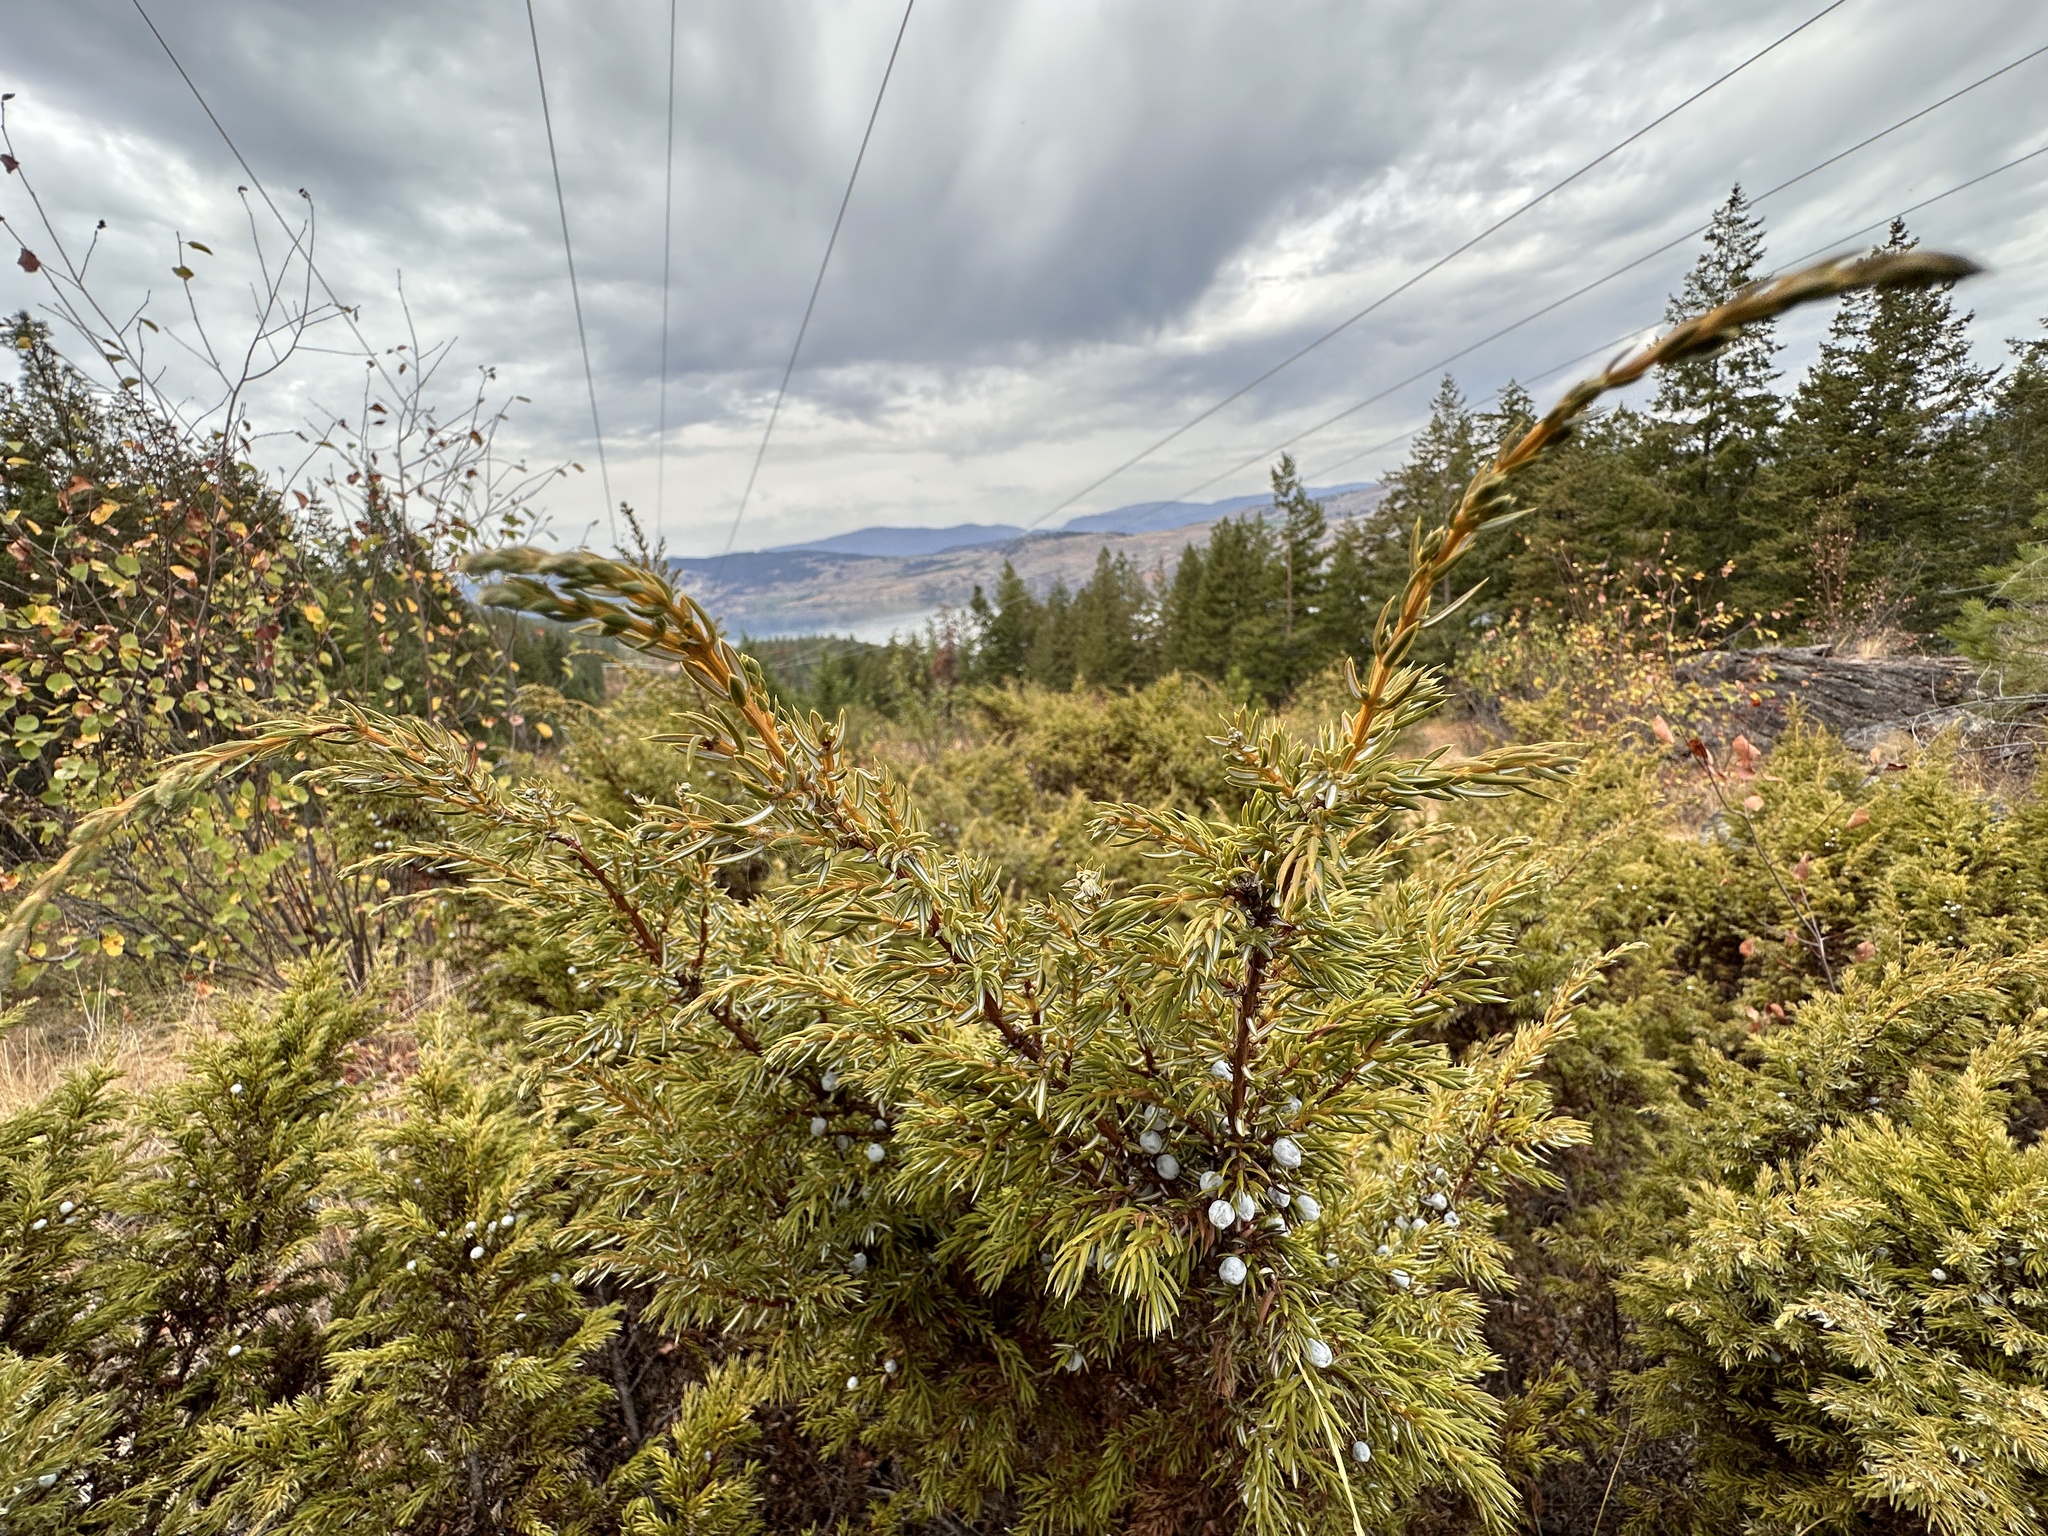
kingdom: Plantae
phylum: Tracheophyta
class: Pinopsida
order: Pinales
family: Cupressaceae
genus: Juniperus
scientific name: Juniperus communis
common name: Common juniper
